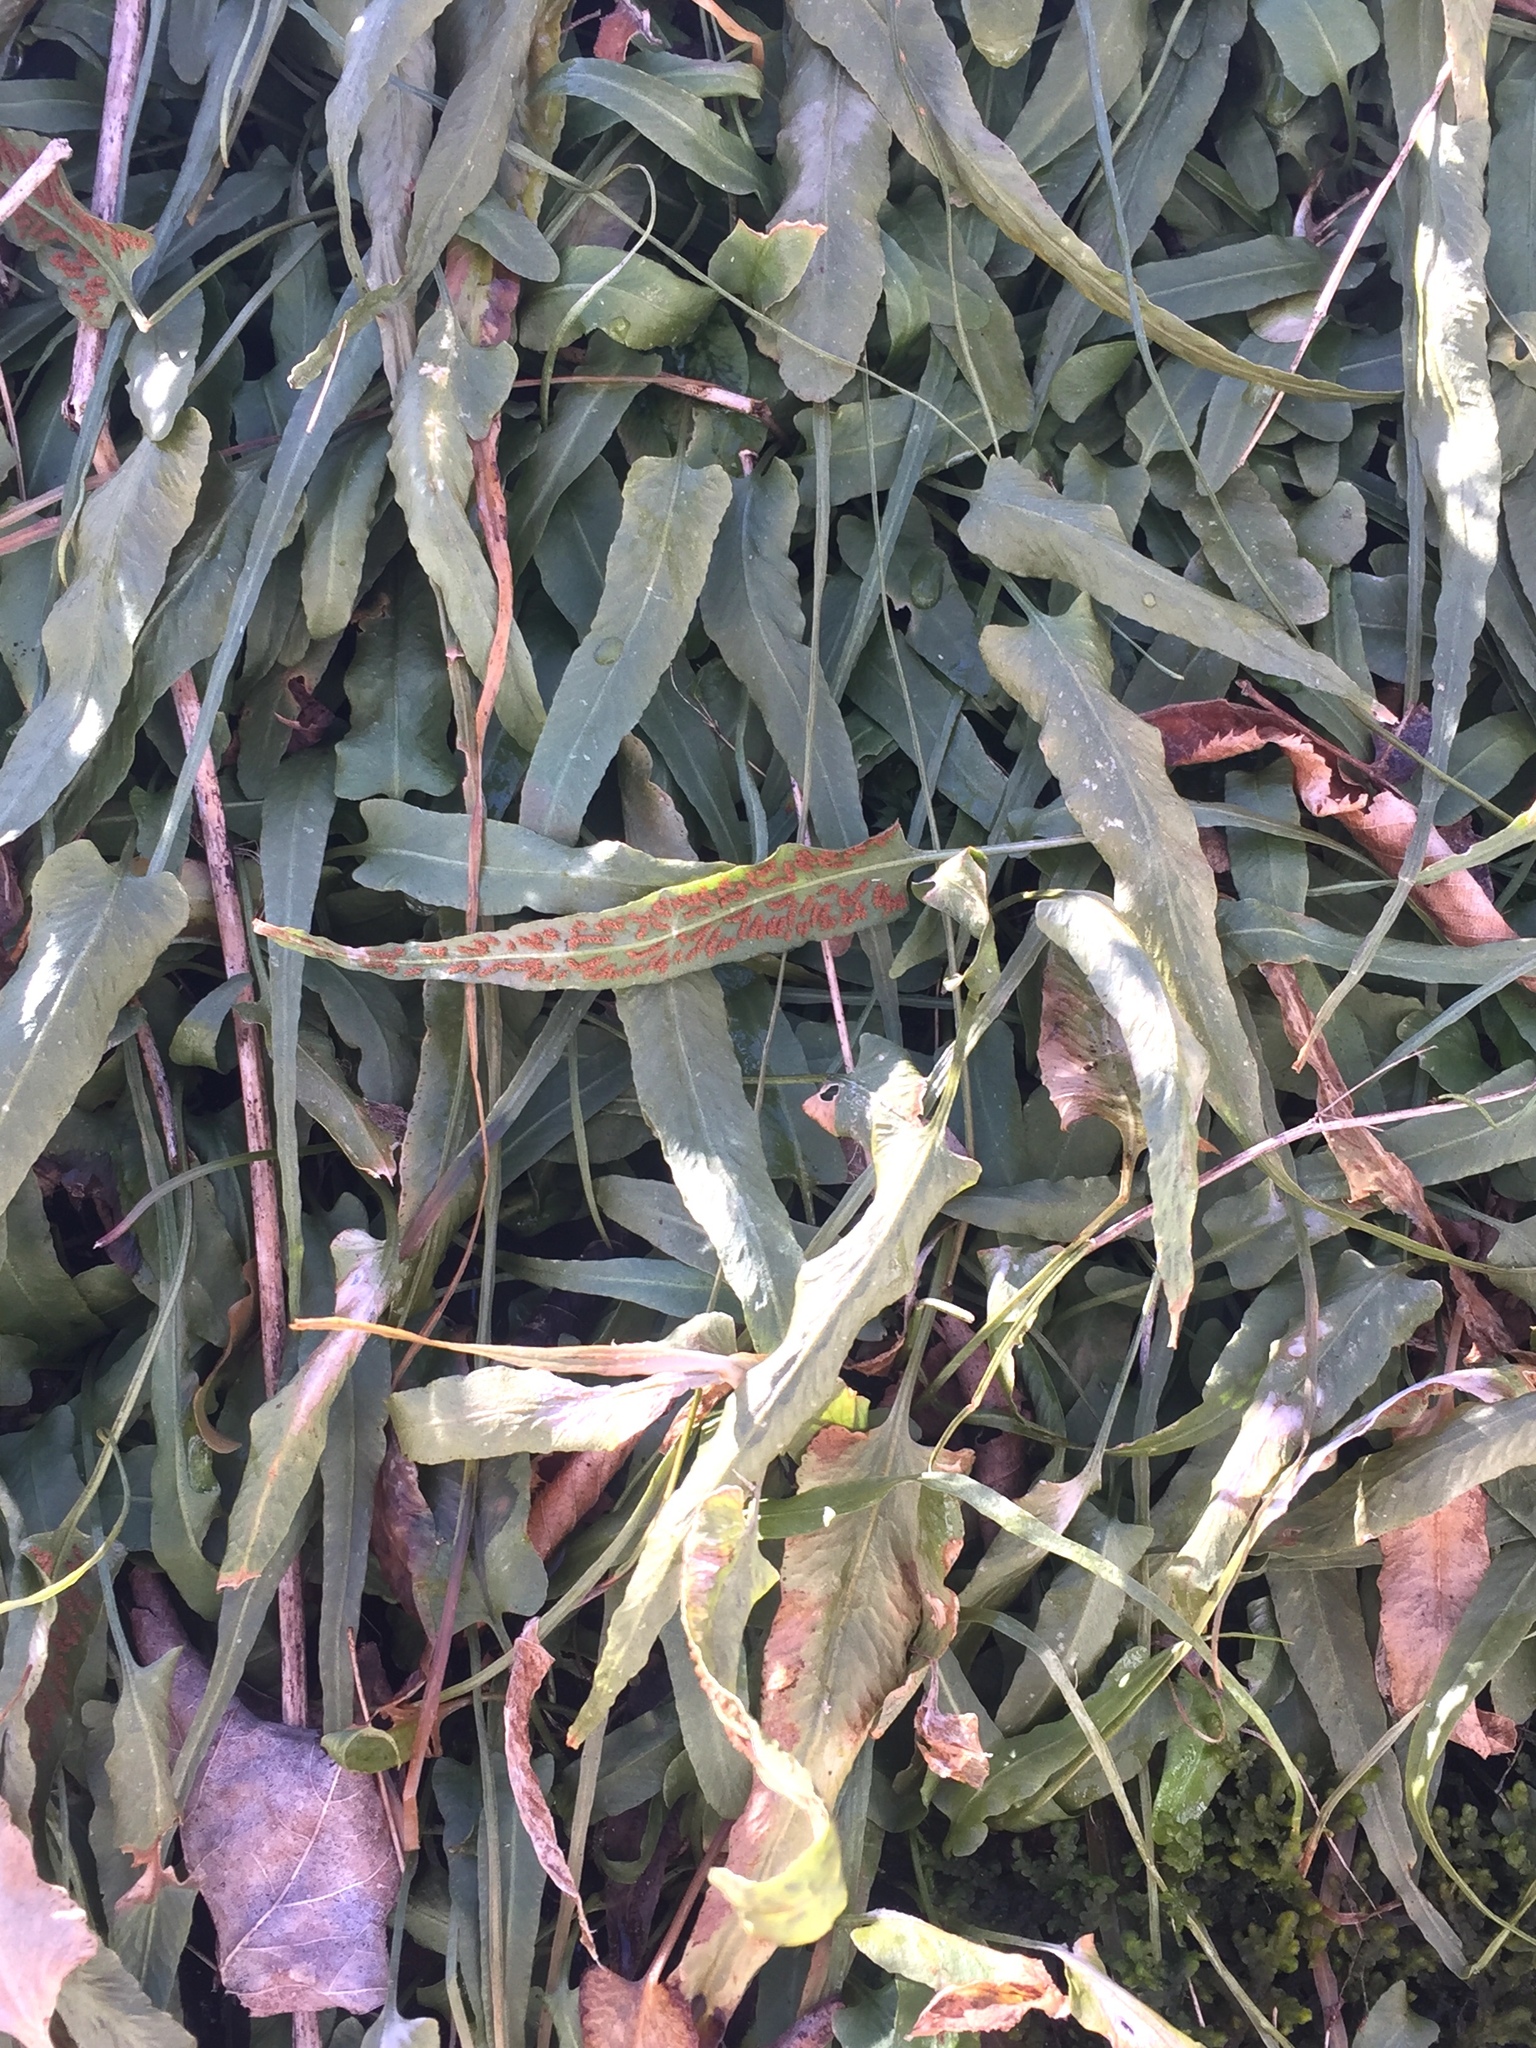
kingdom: Plantae
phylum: Tracheophyta
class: Polypodiopsida
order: Polypodiales
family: Aspleniaceae
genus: Asplenium
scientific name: Asplenium rhizophyllum
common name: Walking fern
